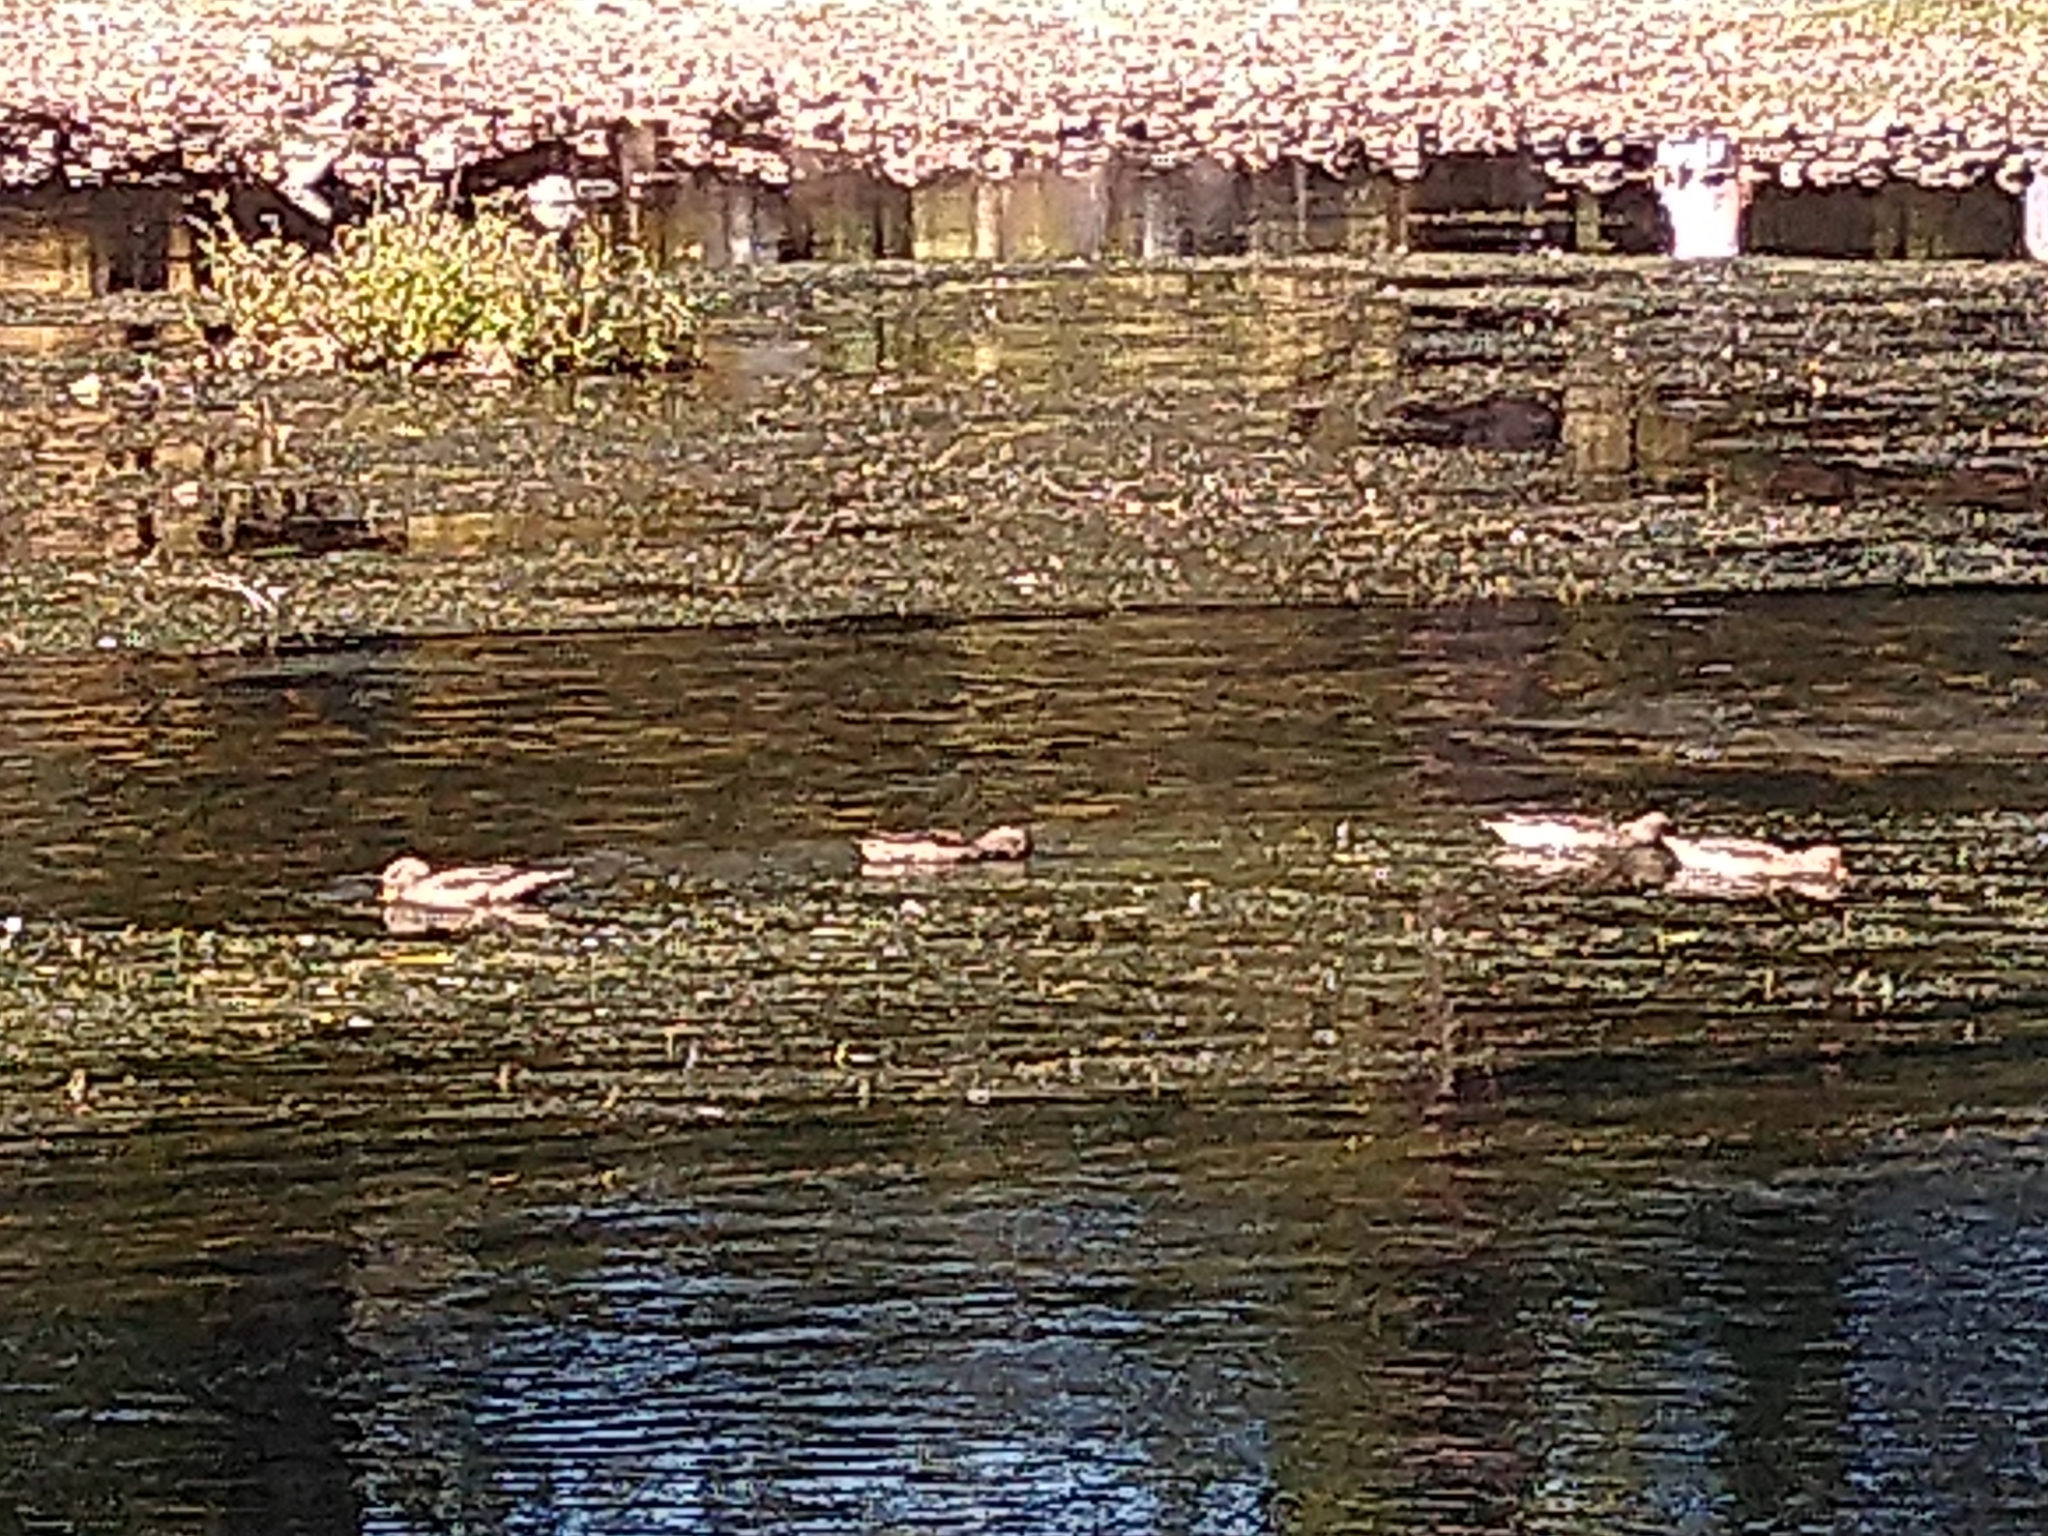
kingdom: Animalia
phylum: Chordata
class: Aves
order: Anseriformes
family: Anatidae
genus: Anas
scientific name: Anas flavirostris
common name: Yellow-billed teal
